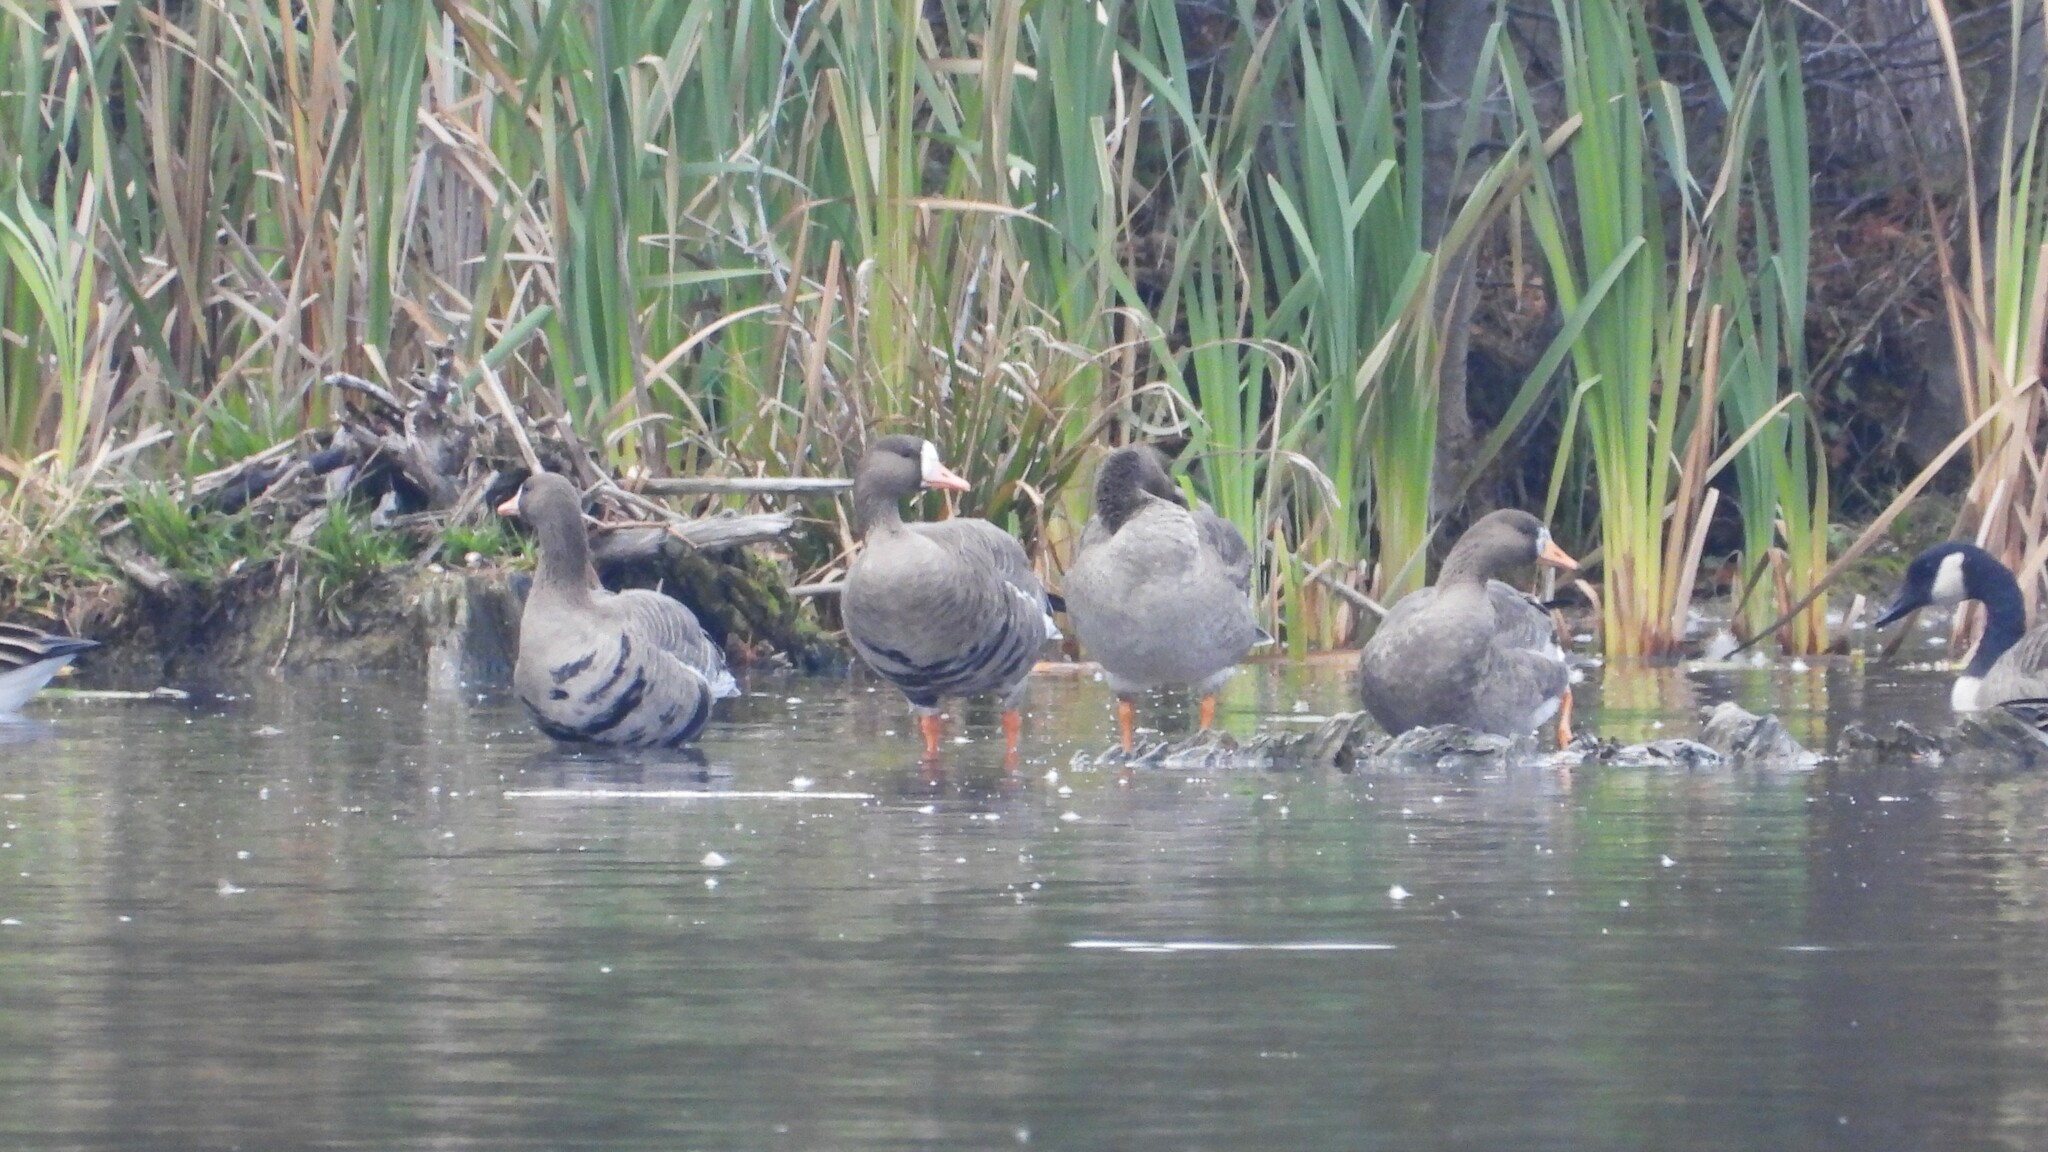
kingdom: Animalia
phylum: Chordata
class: Aves
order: Anseriformes
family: Anatidae
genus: Anser
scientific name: Anser albifrons
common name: Greater white-fronted goose
